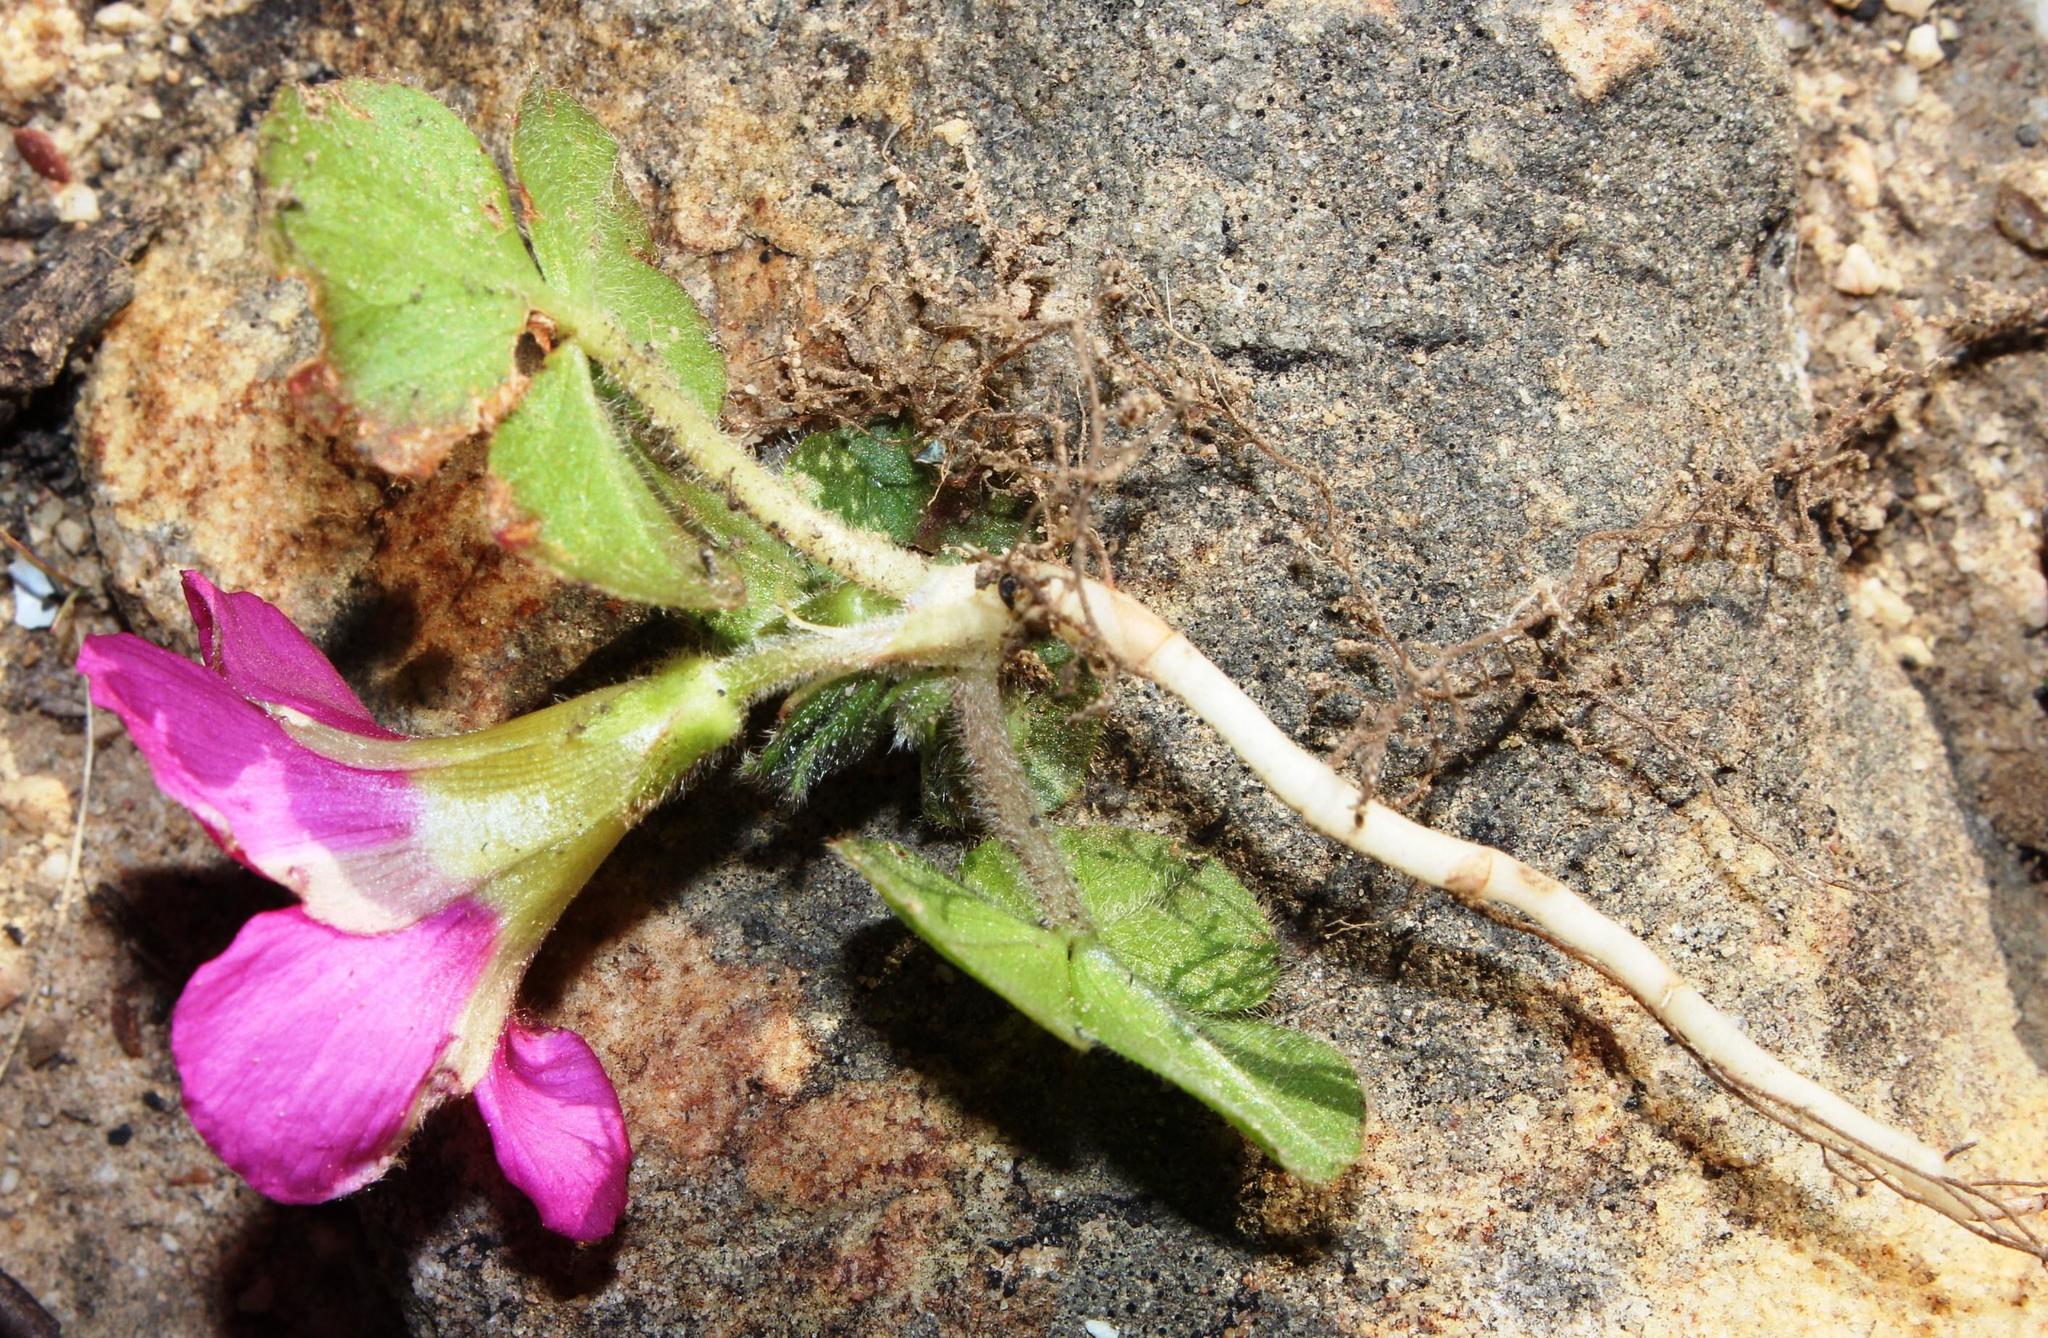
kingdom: Plantae
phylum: Tracheophyta
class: Magnoliopsida
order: Oxalidales
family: Oxalidaceae
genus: Oxalis
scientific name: Oxalis purpurea
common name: Purple woodsorrel
